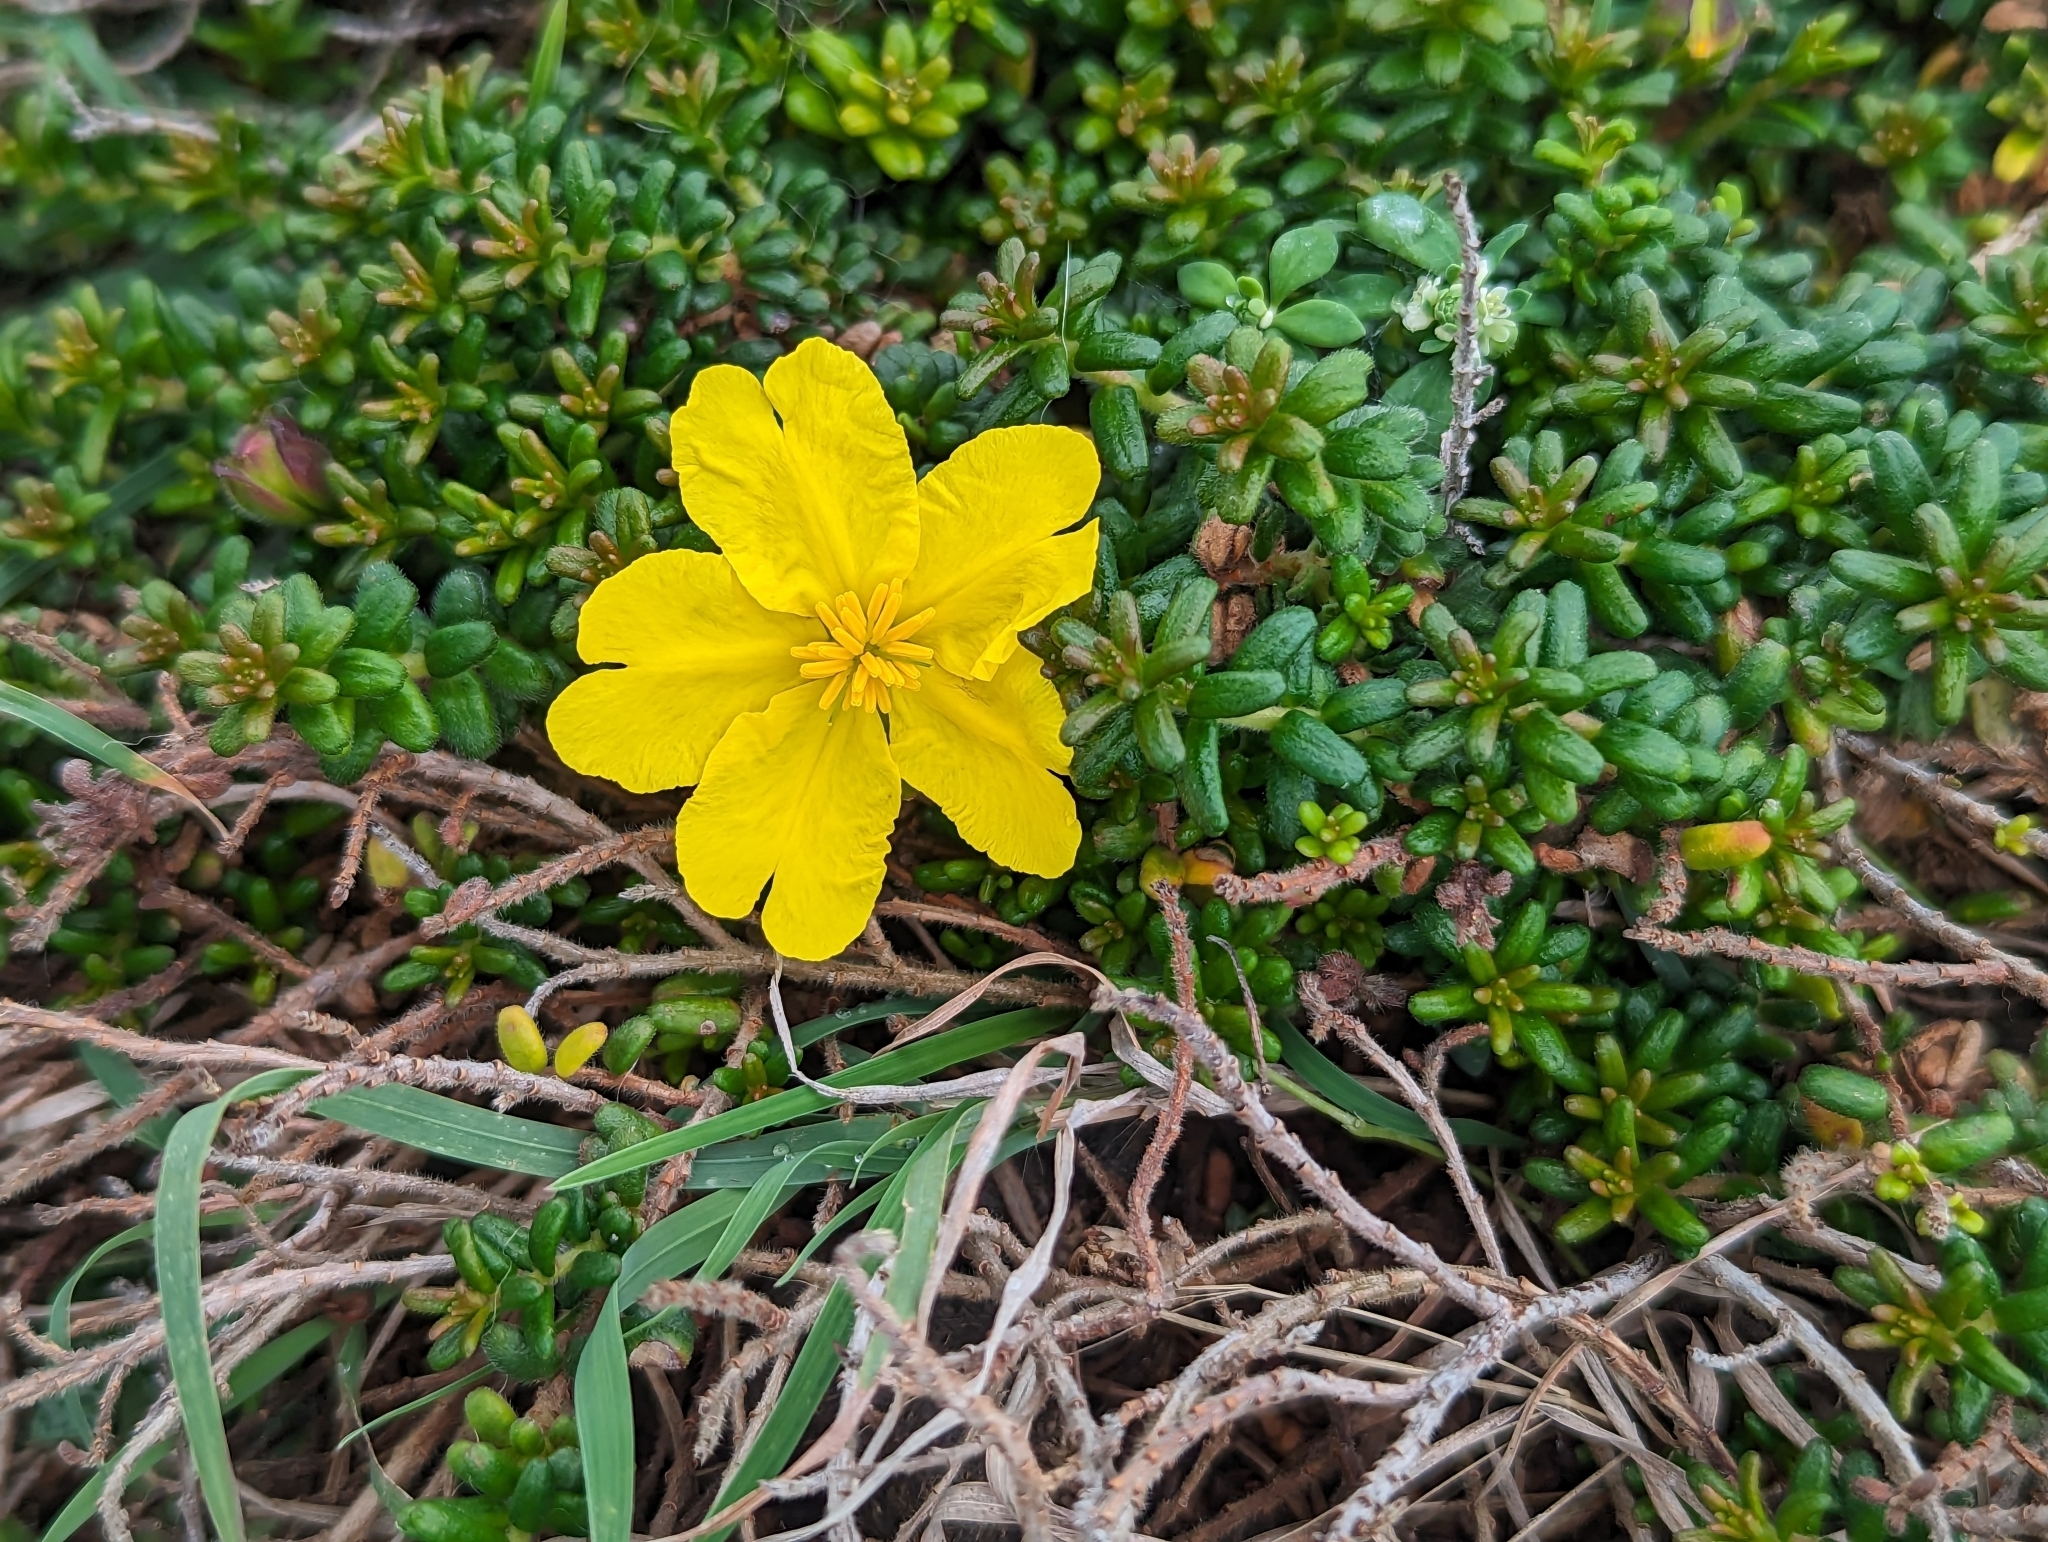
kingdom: Plantae
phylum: Tracheophyta
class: Magnoliopsida
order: Dilleniales
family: Dilleniaceae
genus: Hibbertia
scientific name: Hibbertia vestita
